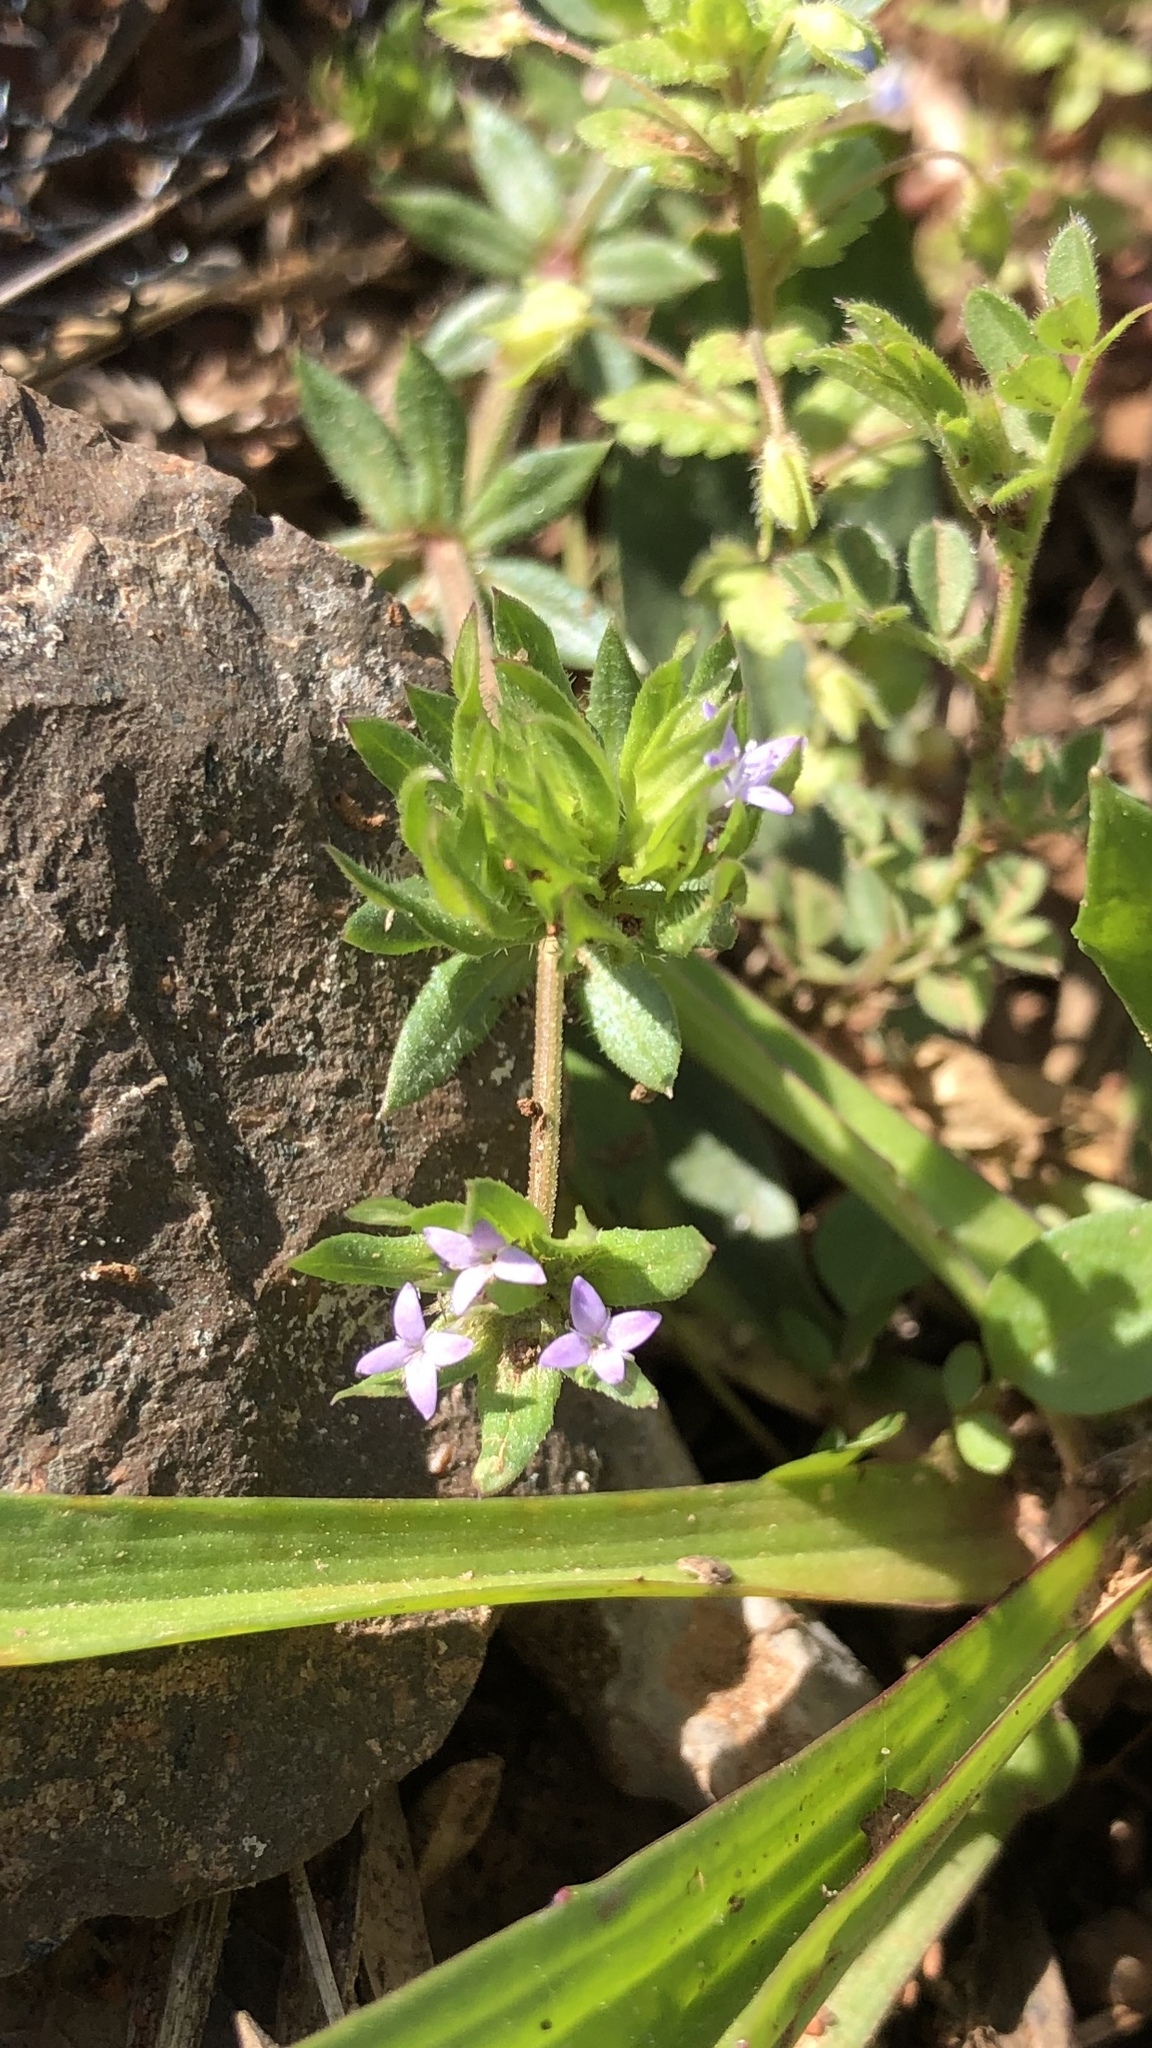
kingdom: Plantae
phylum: Tracheophyta
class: Magnoliopsida
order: Gentianales
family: Rubiaceae
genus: Sherardia
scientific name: Sherardia arvensis
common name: Field madder
